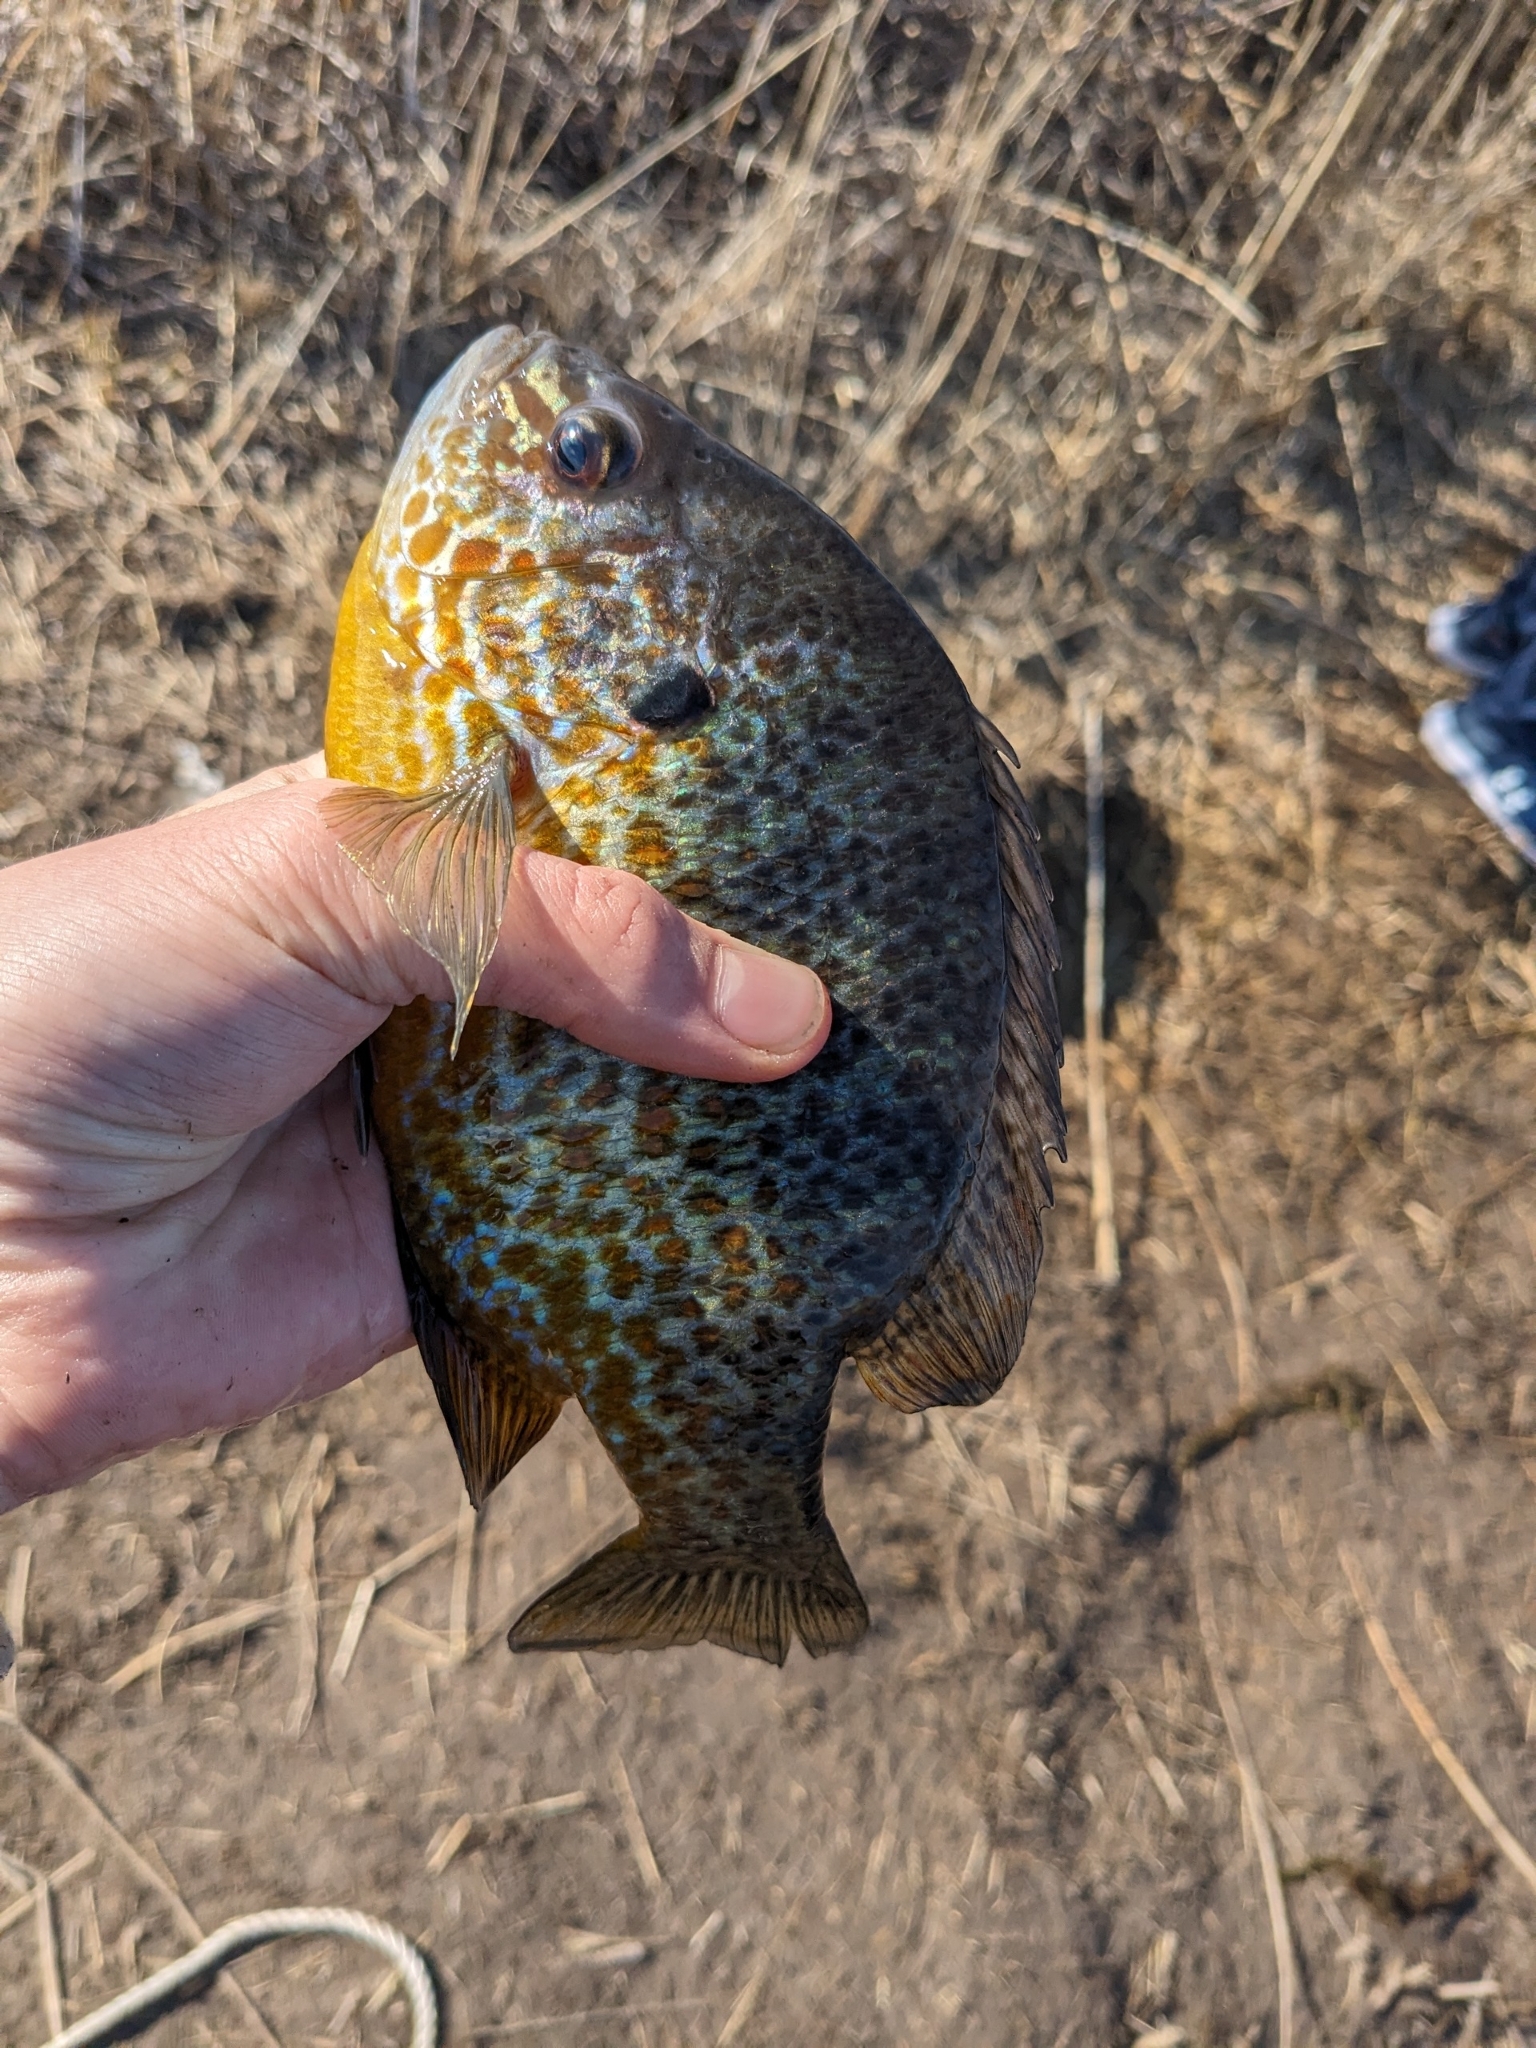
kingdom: Animalia
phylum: Chordata
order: Perciformes
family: Centrarchidae
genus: Lepomis
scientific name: Lepomis gibbosus
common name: Pumpkinseed
